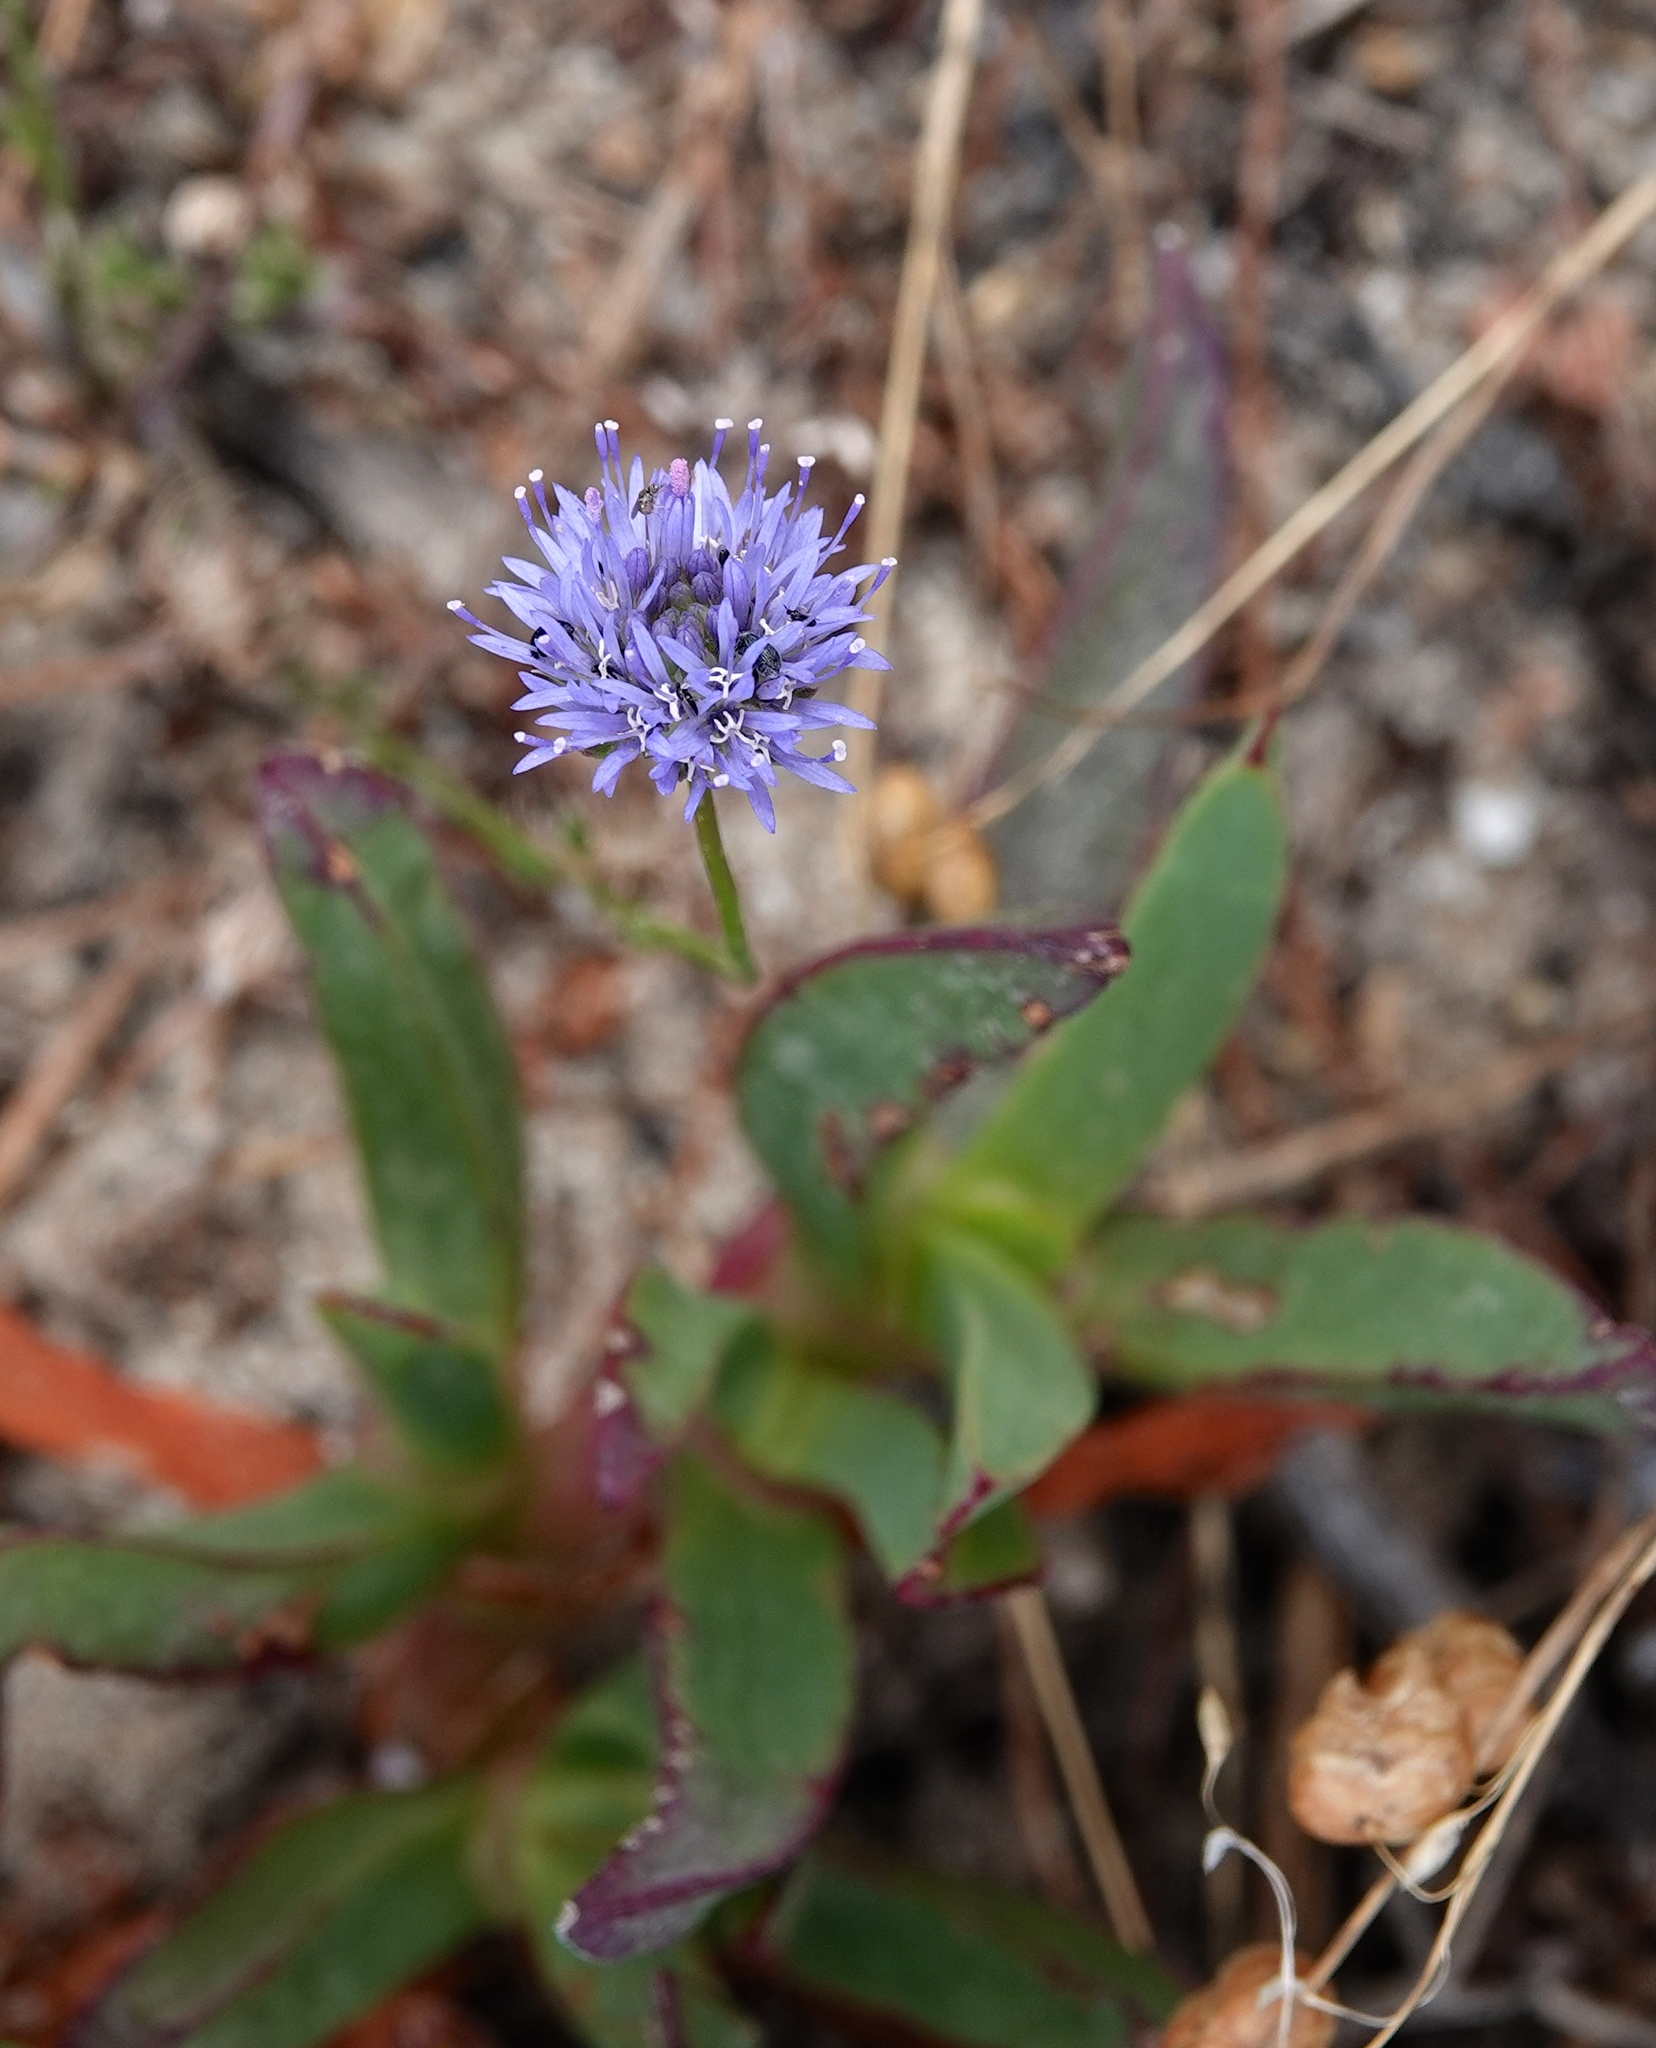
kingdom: Plantae
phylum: Tracheophyta
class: Magnoliopsida
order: Asterales
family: Campanulaceae
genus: Jasione
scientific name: Jasione montana
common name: Sheep's-bit
